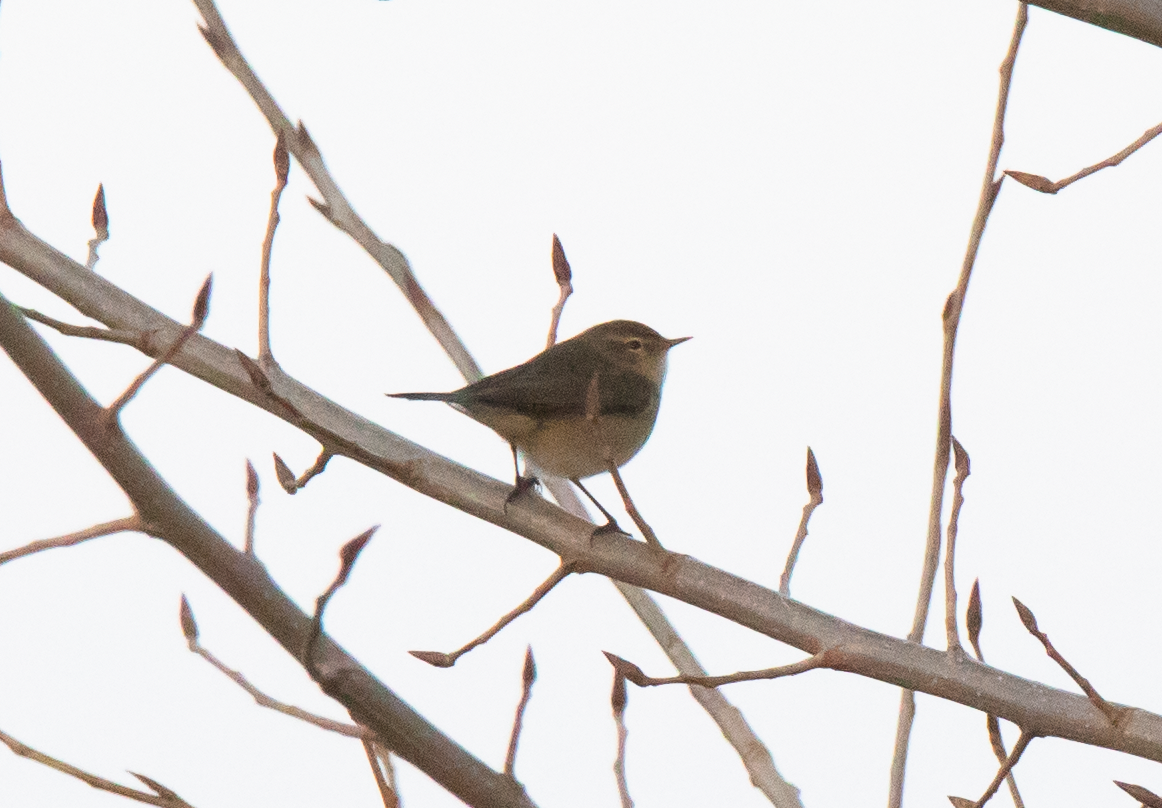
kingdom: Animalia
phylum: Chordata
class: Aves
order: Passeriformes
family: Phylloscopidae
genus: Phylloscopus
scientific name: Phylloscopus collybita
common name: Common chiffchaff
